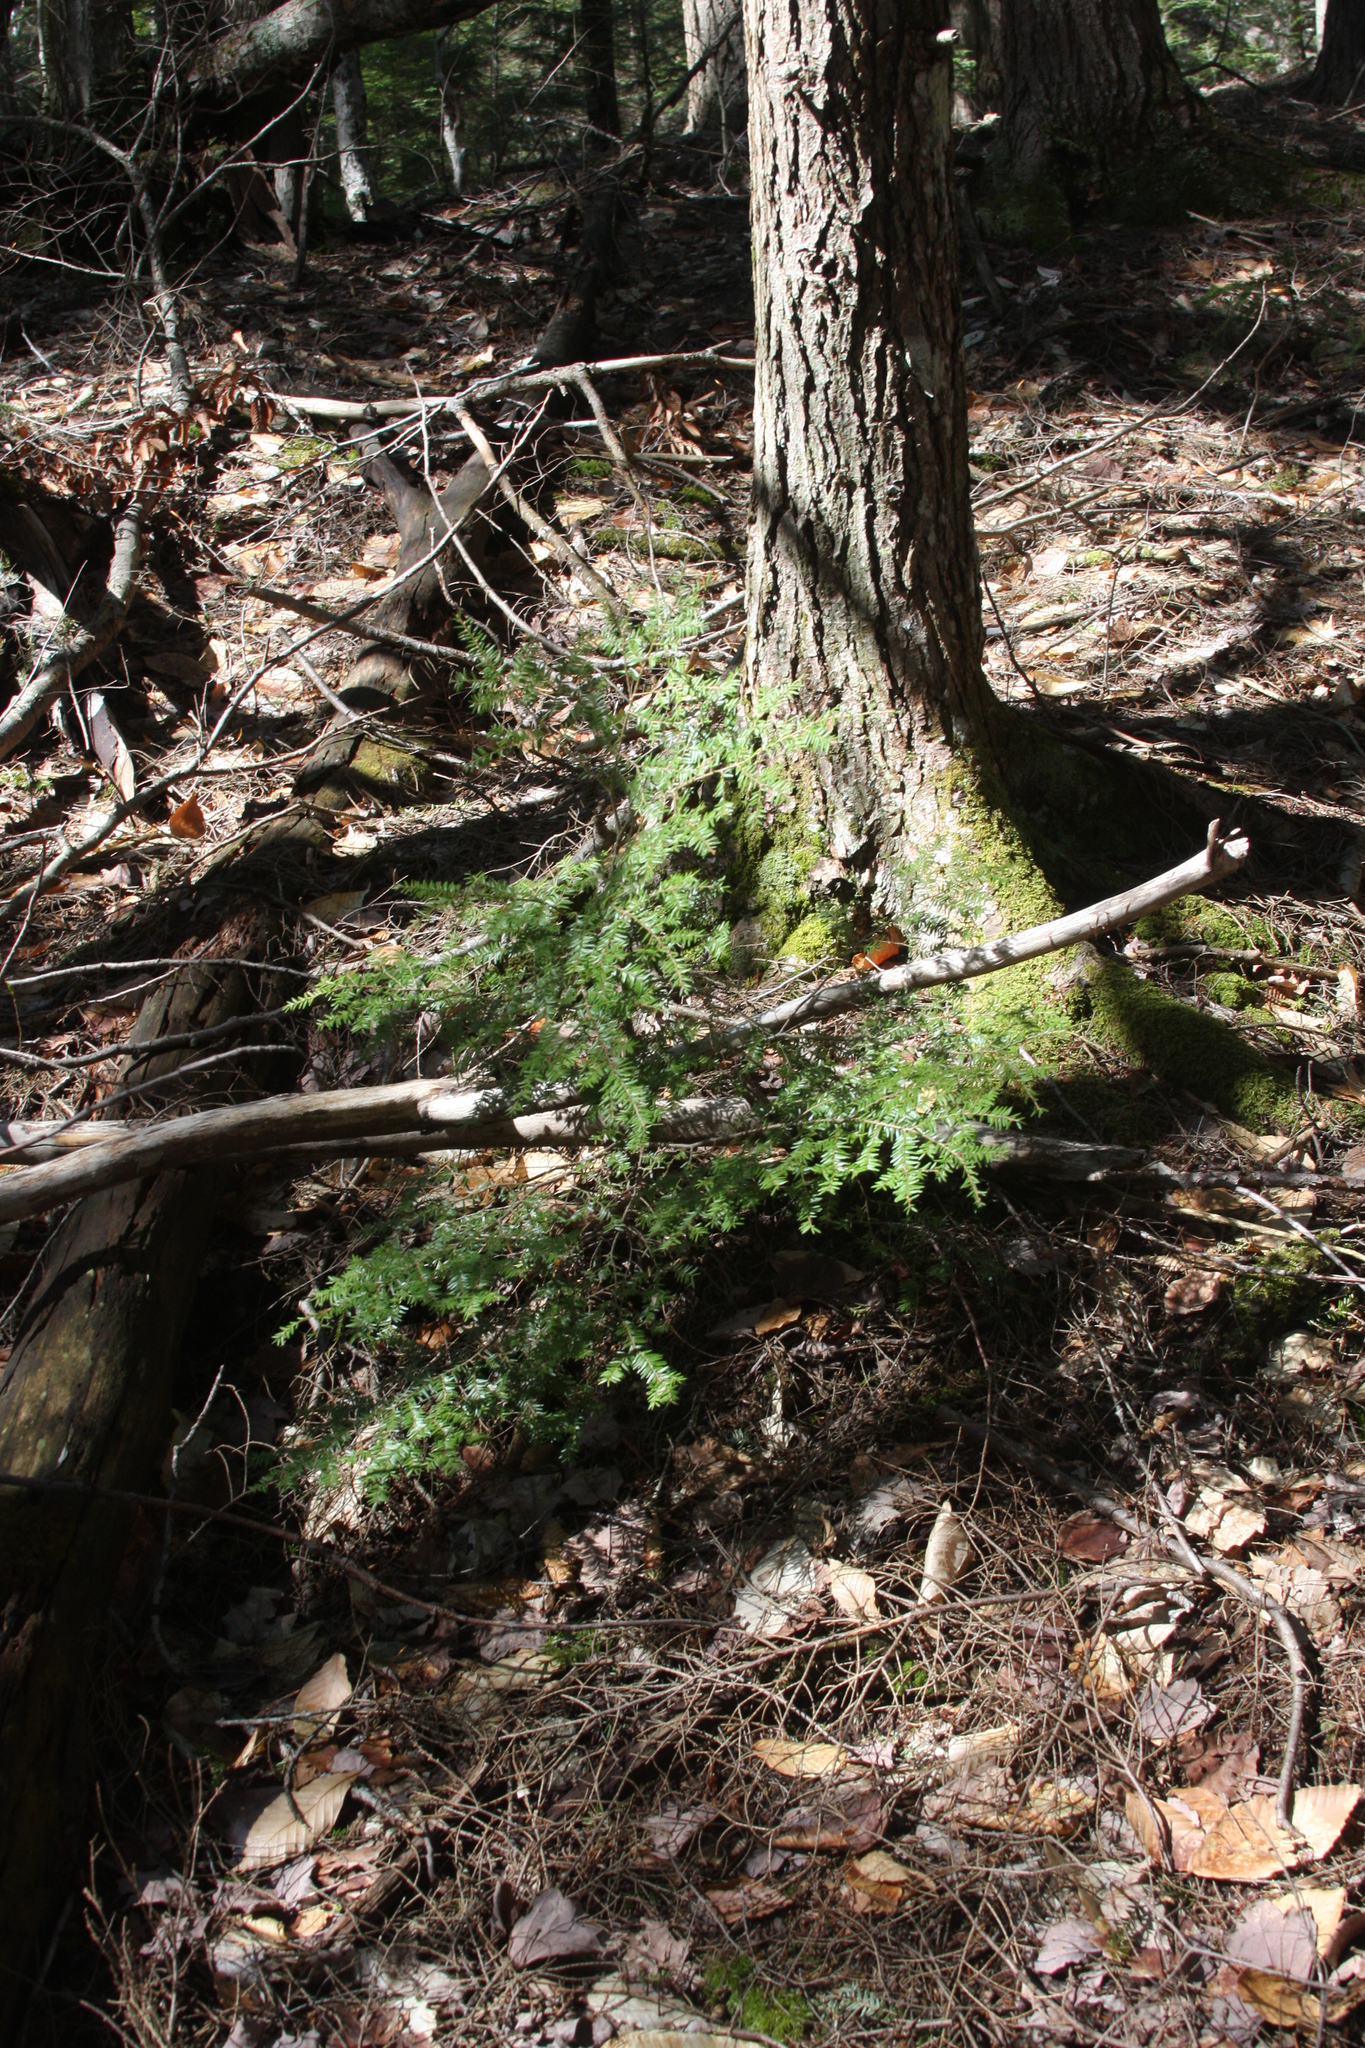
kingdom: Plantae
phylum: Tracheophyta
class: Pinopsida
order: Pinales
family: Pinaceae
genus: Tsuga
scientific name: Tsuga canadensis
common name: Eastern hemlock
